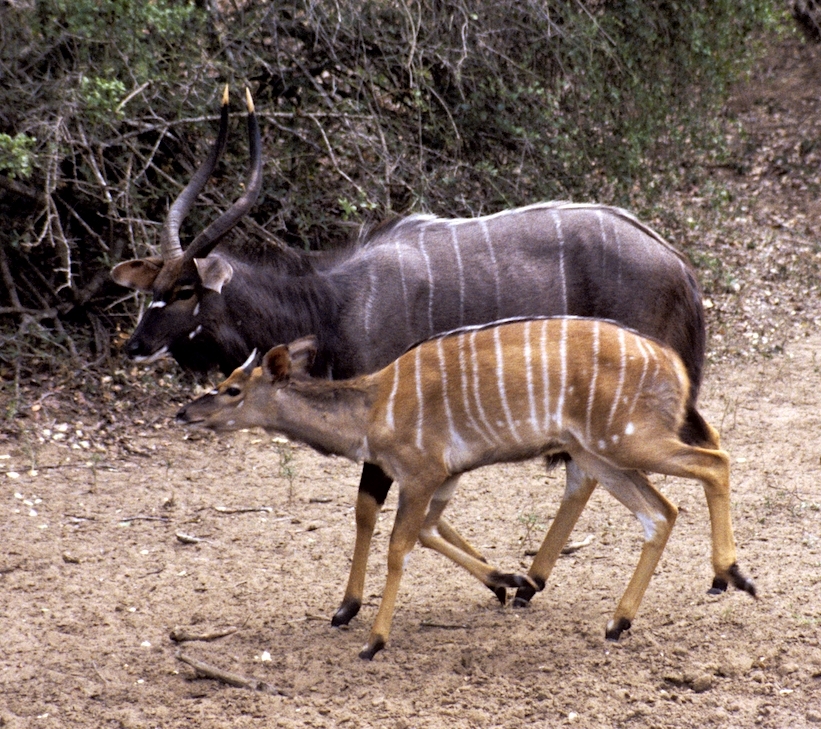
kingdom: Animalia
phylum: Chordata
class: Mammalia
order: Artiodactyla
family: Bovidae
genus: Tragelaphus
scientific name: Tragelaphus angasii
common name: Nyala
